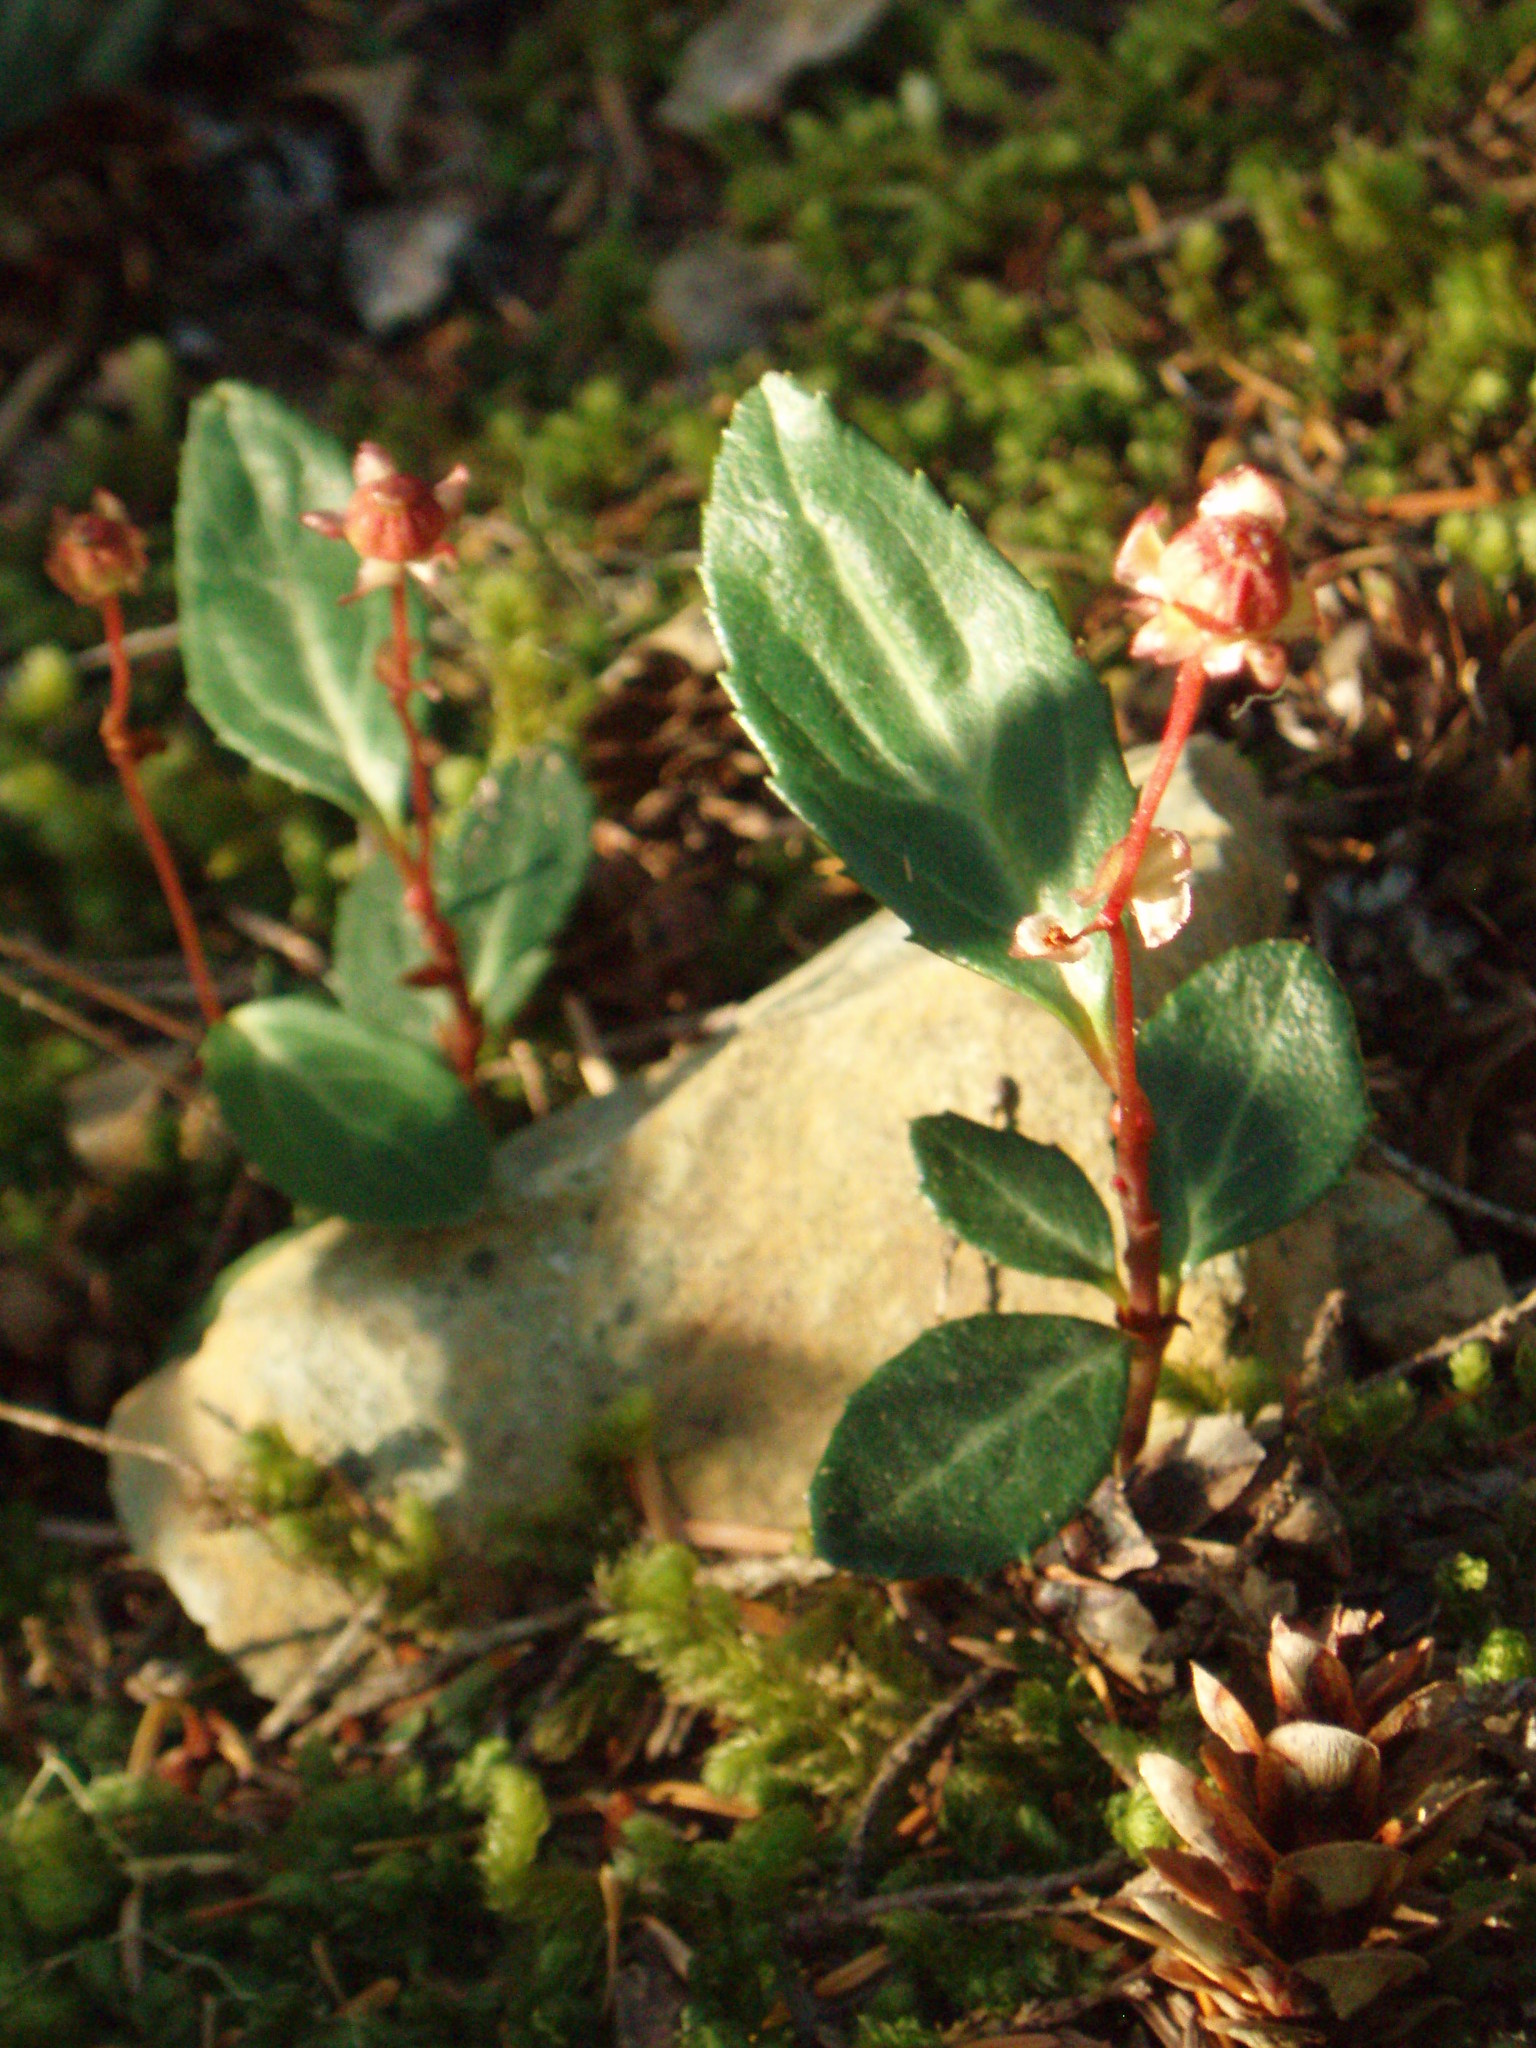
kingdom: Plantae
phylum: Tracheophyta
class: Magnoliopsida
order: Ericales
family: Ericaceae
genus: Chimaphila
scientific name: Chimaphila menziesii
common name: Menzies' pipsissewa
